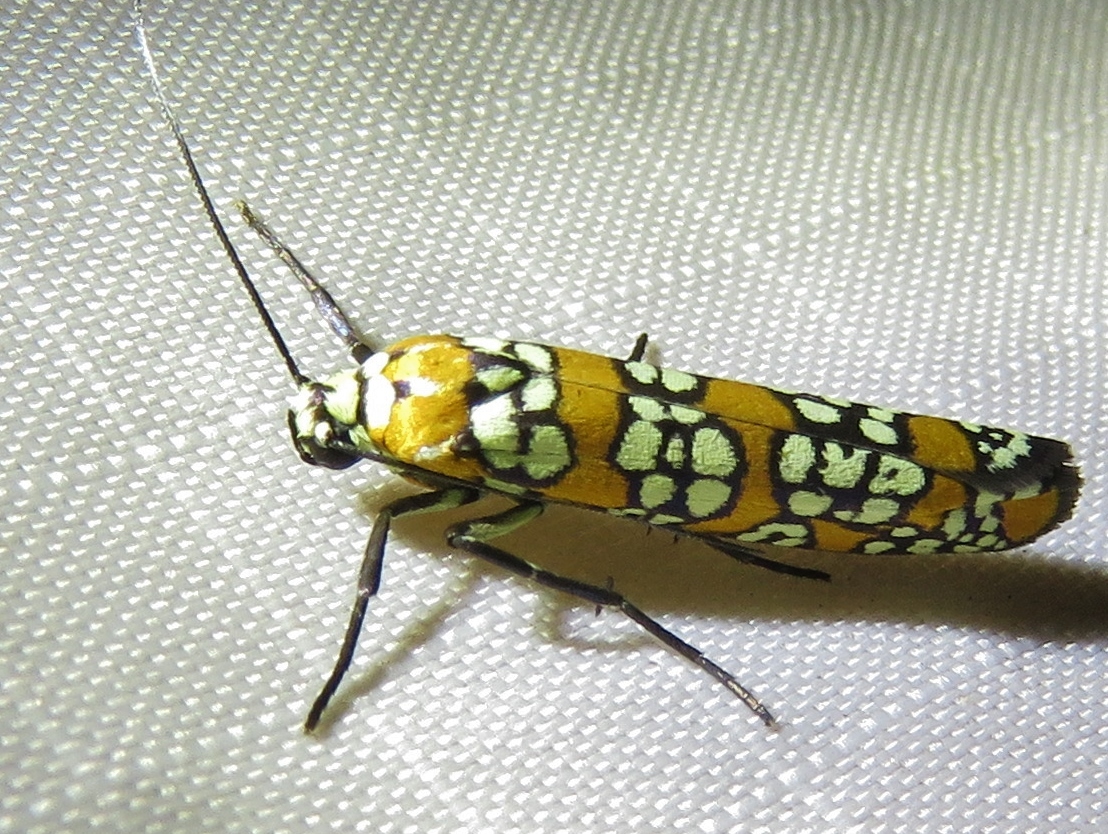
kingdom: Animalia
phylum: Arthropoda
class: Insecta
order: Lepidoptera
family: Attevidae
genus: Atteva
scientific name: Atteva punctella
